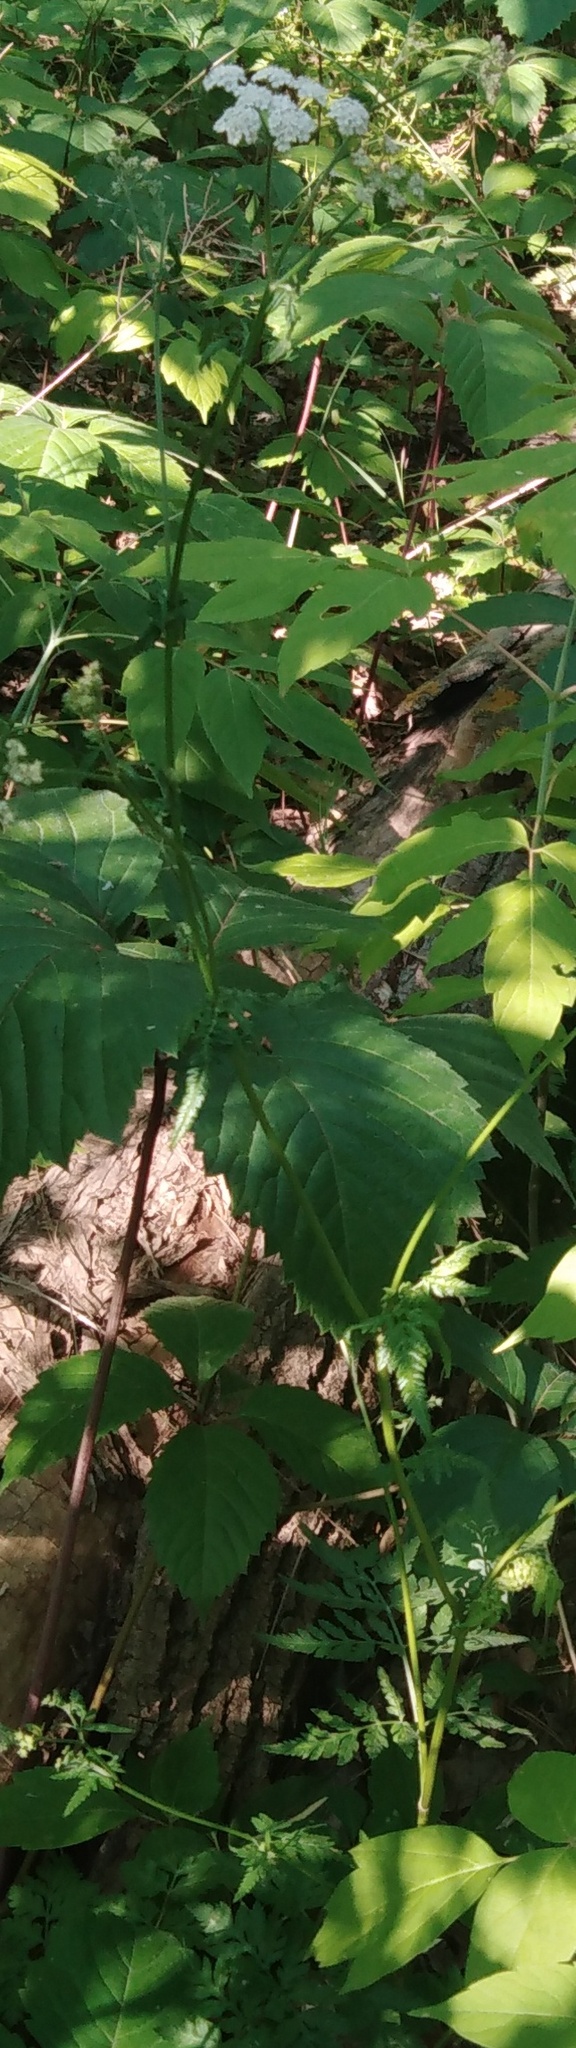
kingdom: Plantae
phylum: Tracheophyta
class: Magnoliopsida
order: Apiales
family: Apiaceae
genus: Torilis
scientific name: Torilis japonica
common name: Upright hedge-parsley
